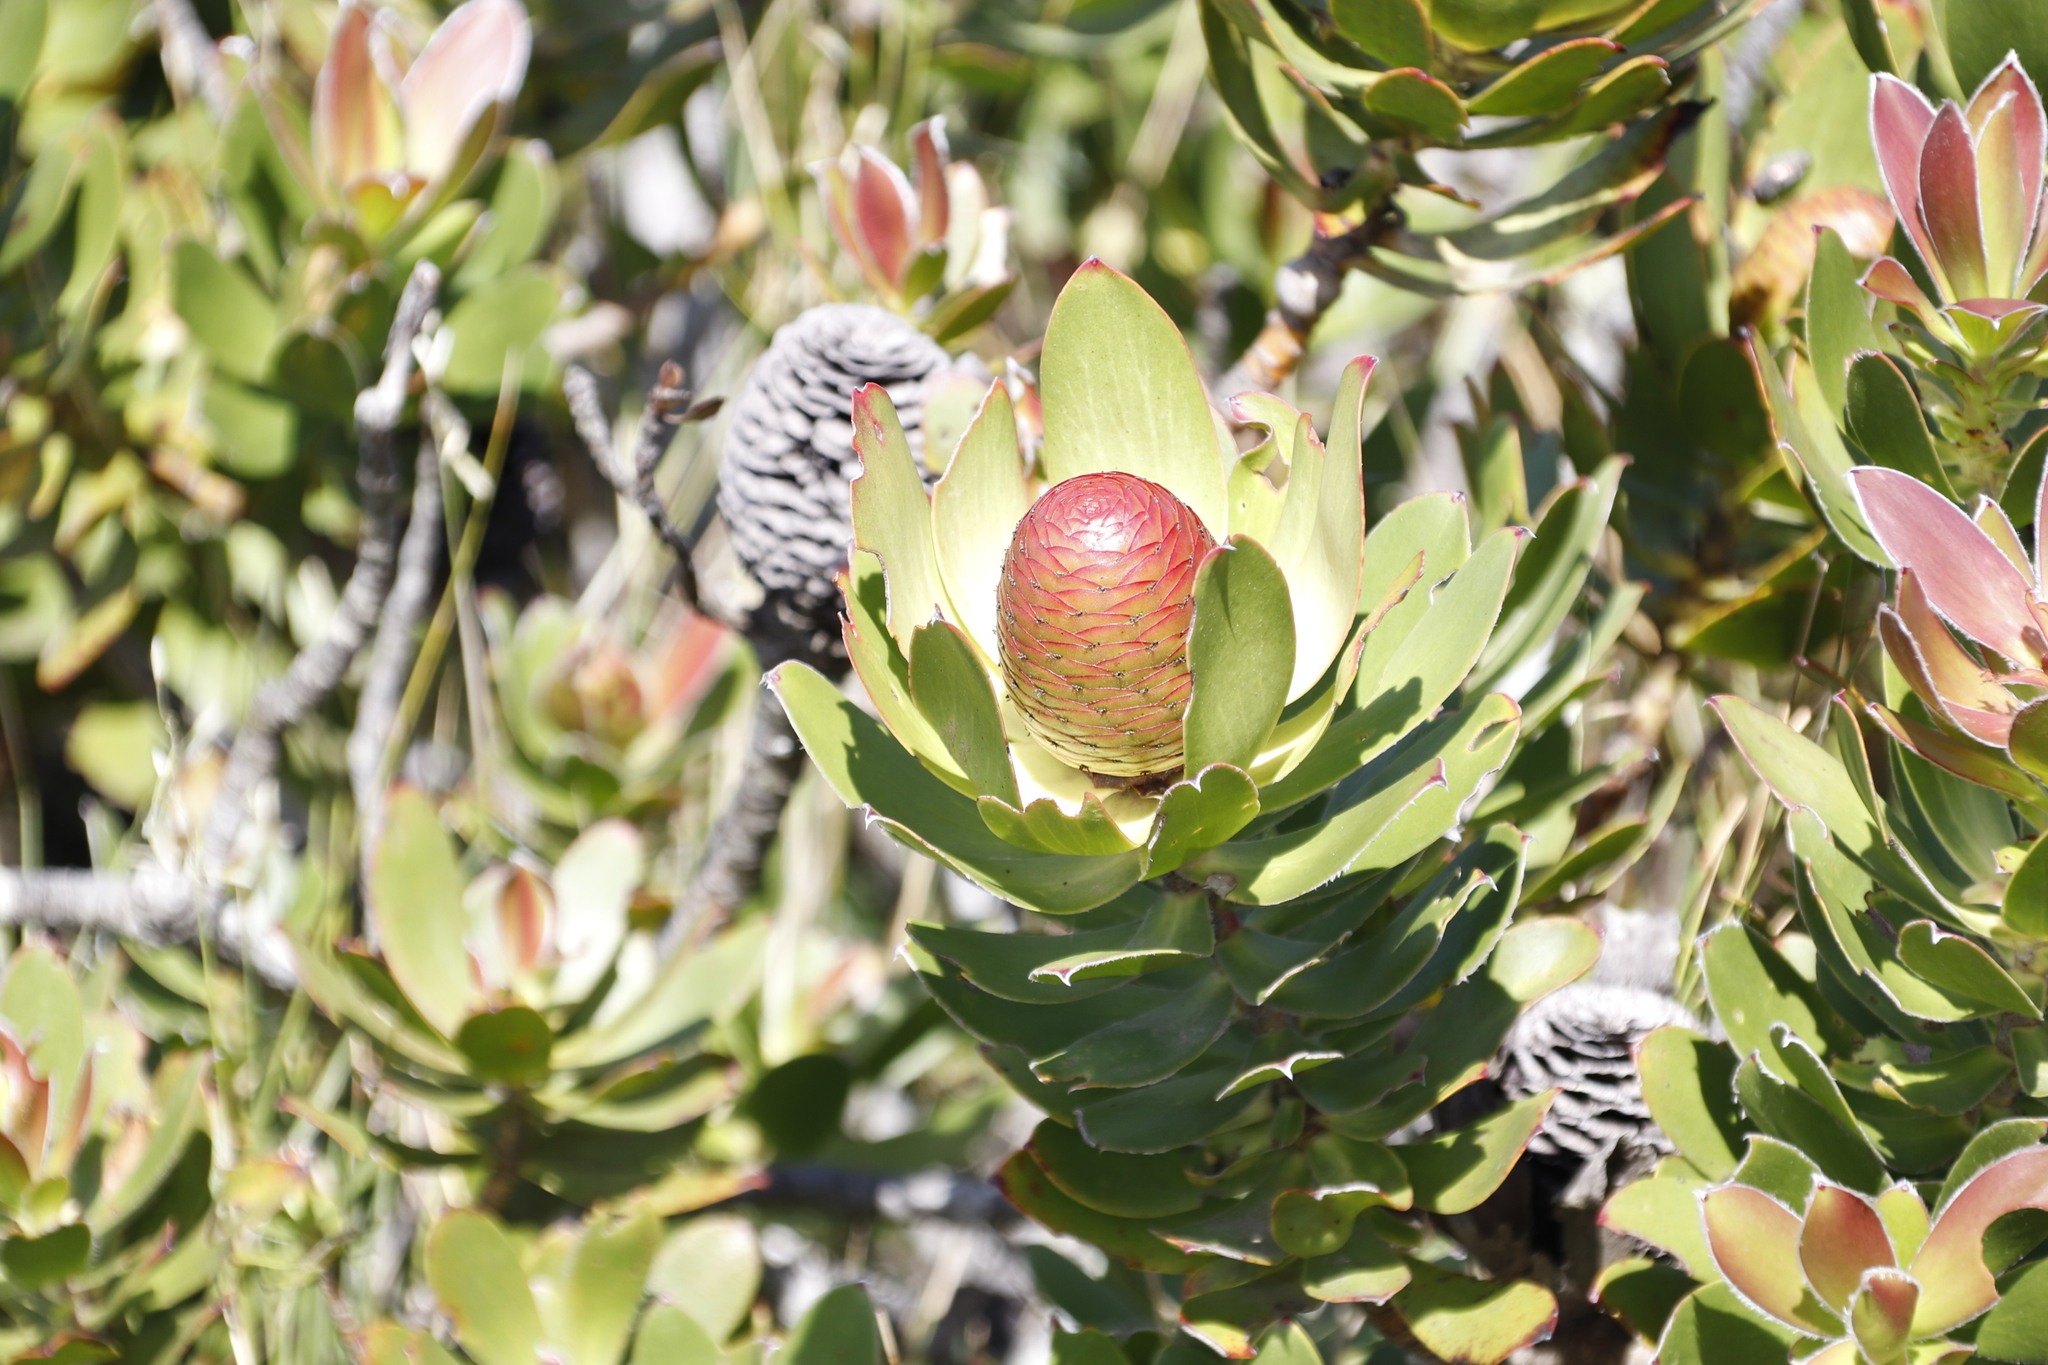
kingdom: Plantae
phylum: Tracheophyta
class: Magnoliopsida
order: Proteales
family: Proteaceae
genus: Leucadendron
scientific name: Leucadendron strobilinum
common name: Mountain rose
